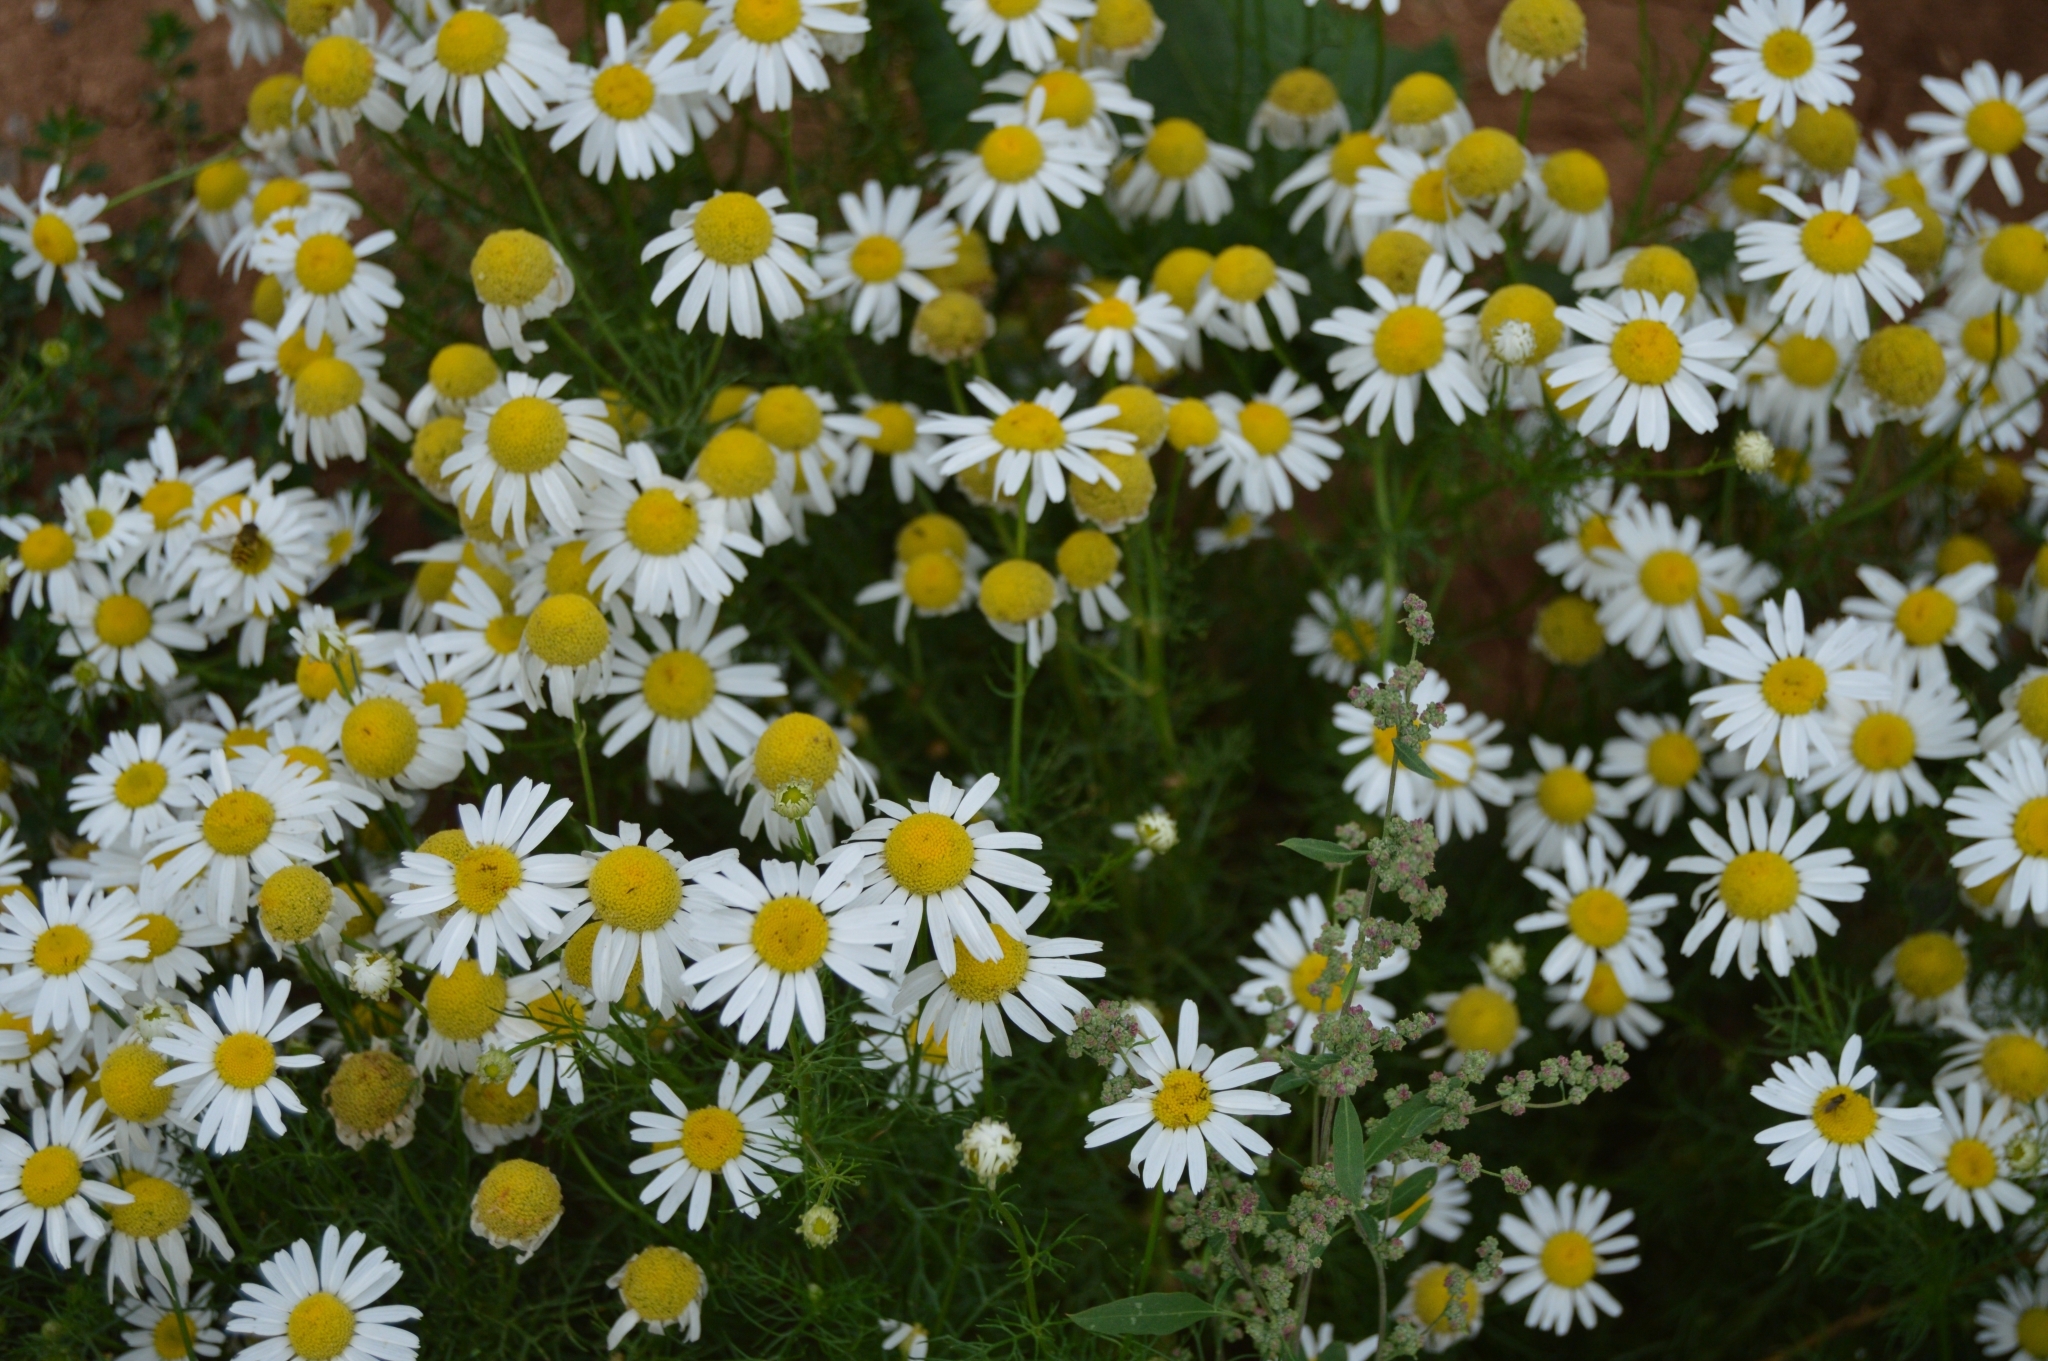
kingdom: Plantae
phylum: Tracheophyta
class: Magnoliopsida
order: Asterales
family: Asteraceae
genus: Tripleurospermum
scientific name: Tripleurospermum inodorum
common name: Scentless mayweed
